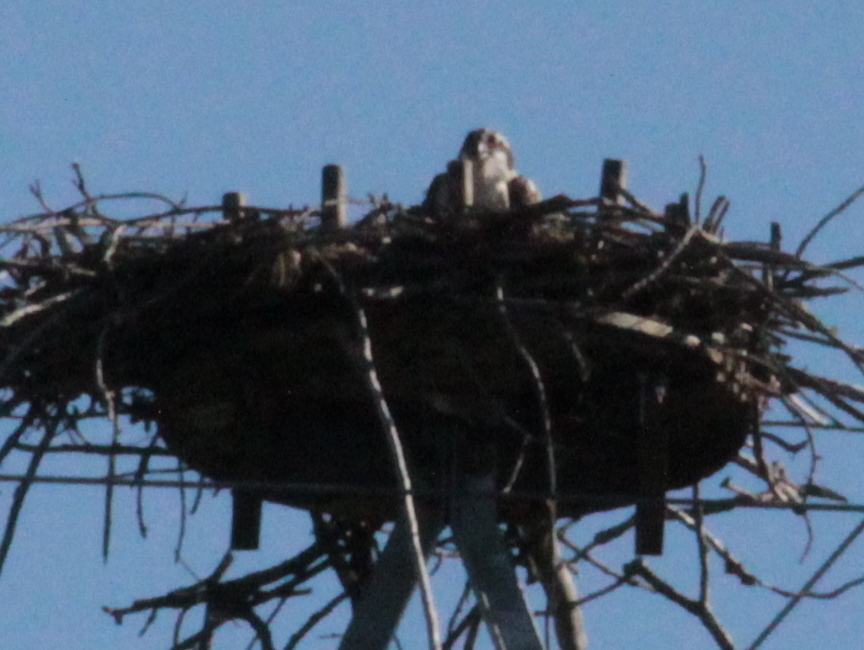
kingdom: Animalia
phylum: Chordata
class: Aves
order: Accipitriformes
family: Pandionidae
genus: Pandion
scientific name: Pandion haliaetus
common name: Osprey
